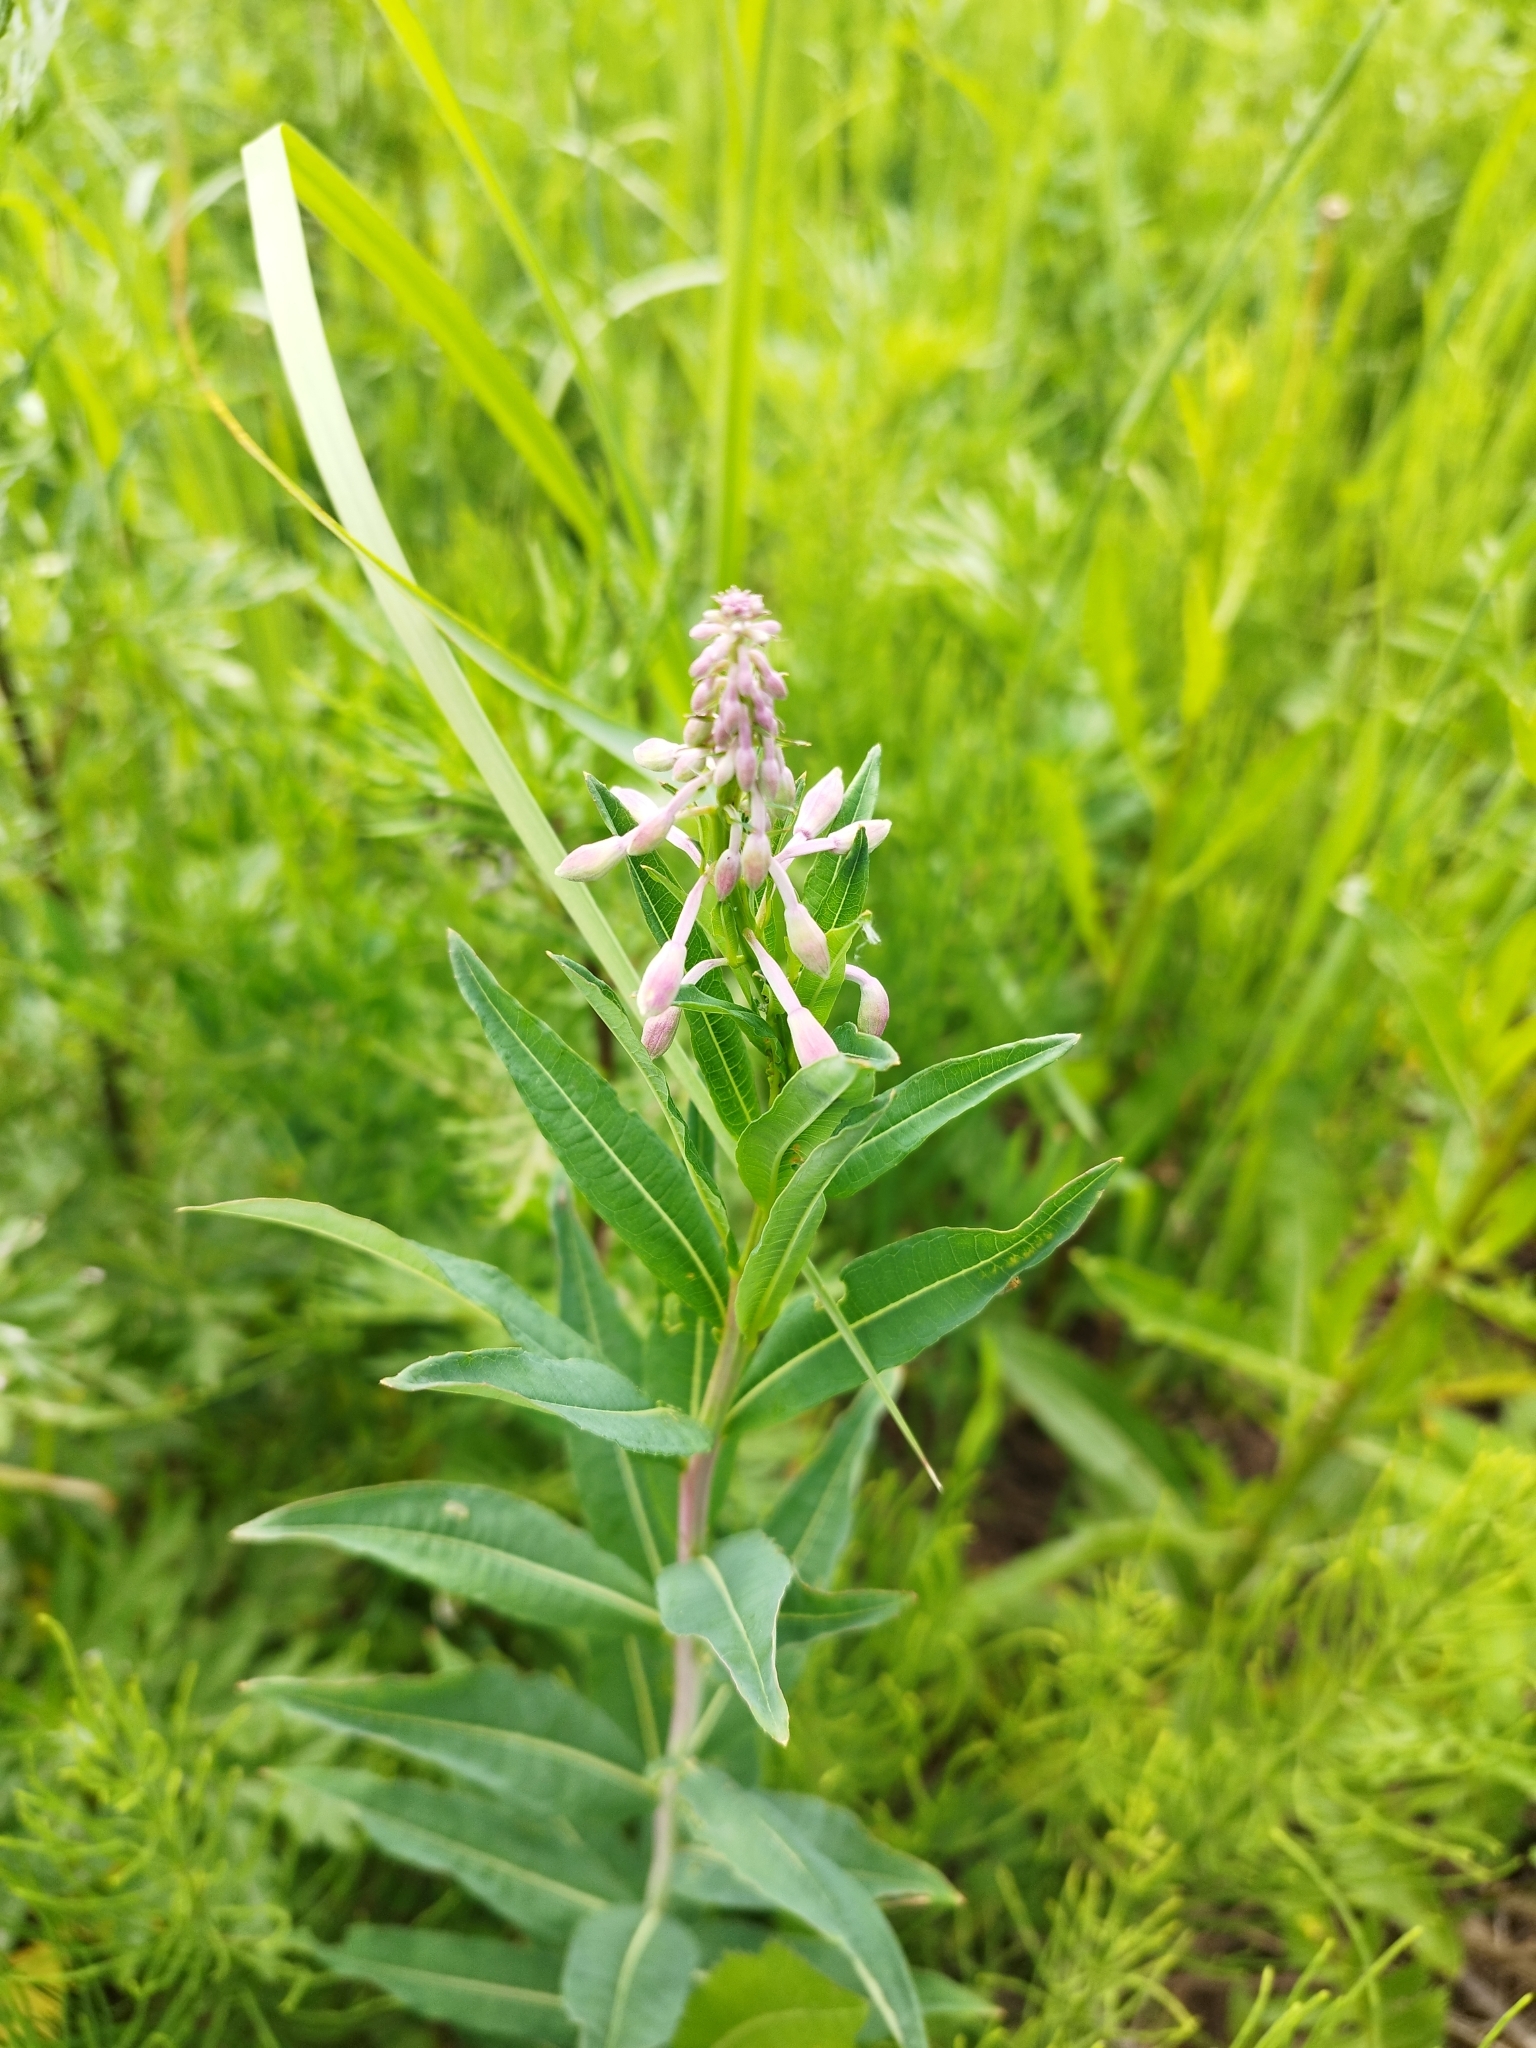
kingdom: Plantae
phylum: Tracheophyta
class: Magnoliopsida
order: Myrtales
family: Onagraceae
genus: Chamaenerion
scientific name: Chamaenerion angustifolium
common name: Fireweed
